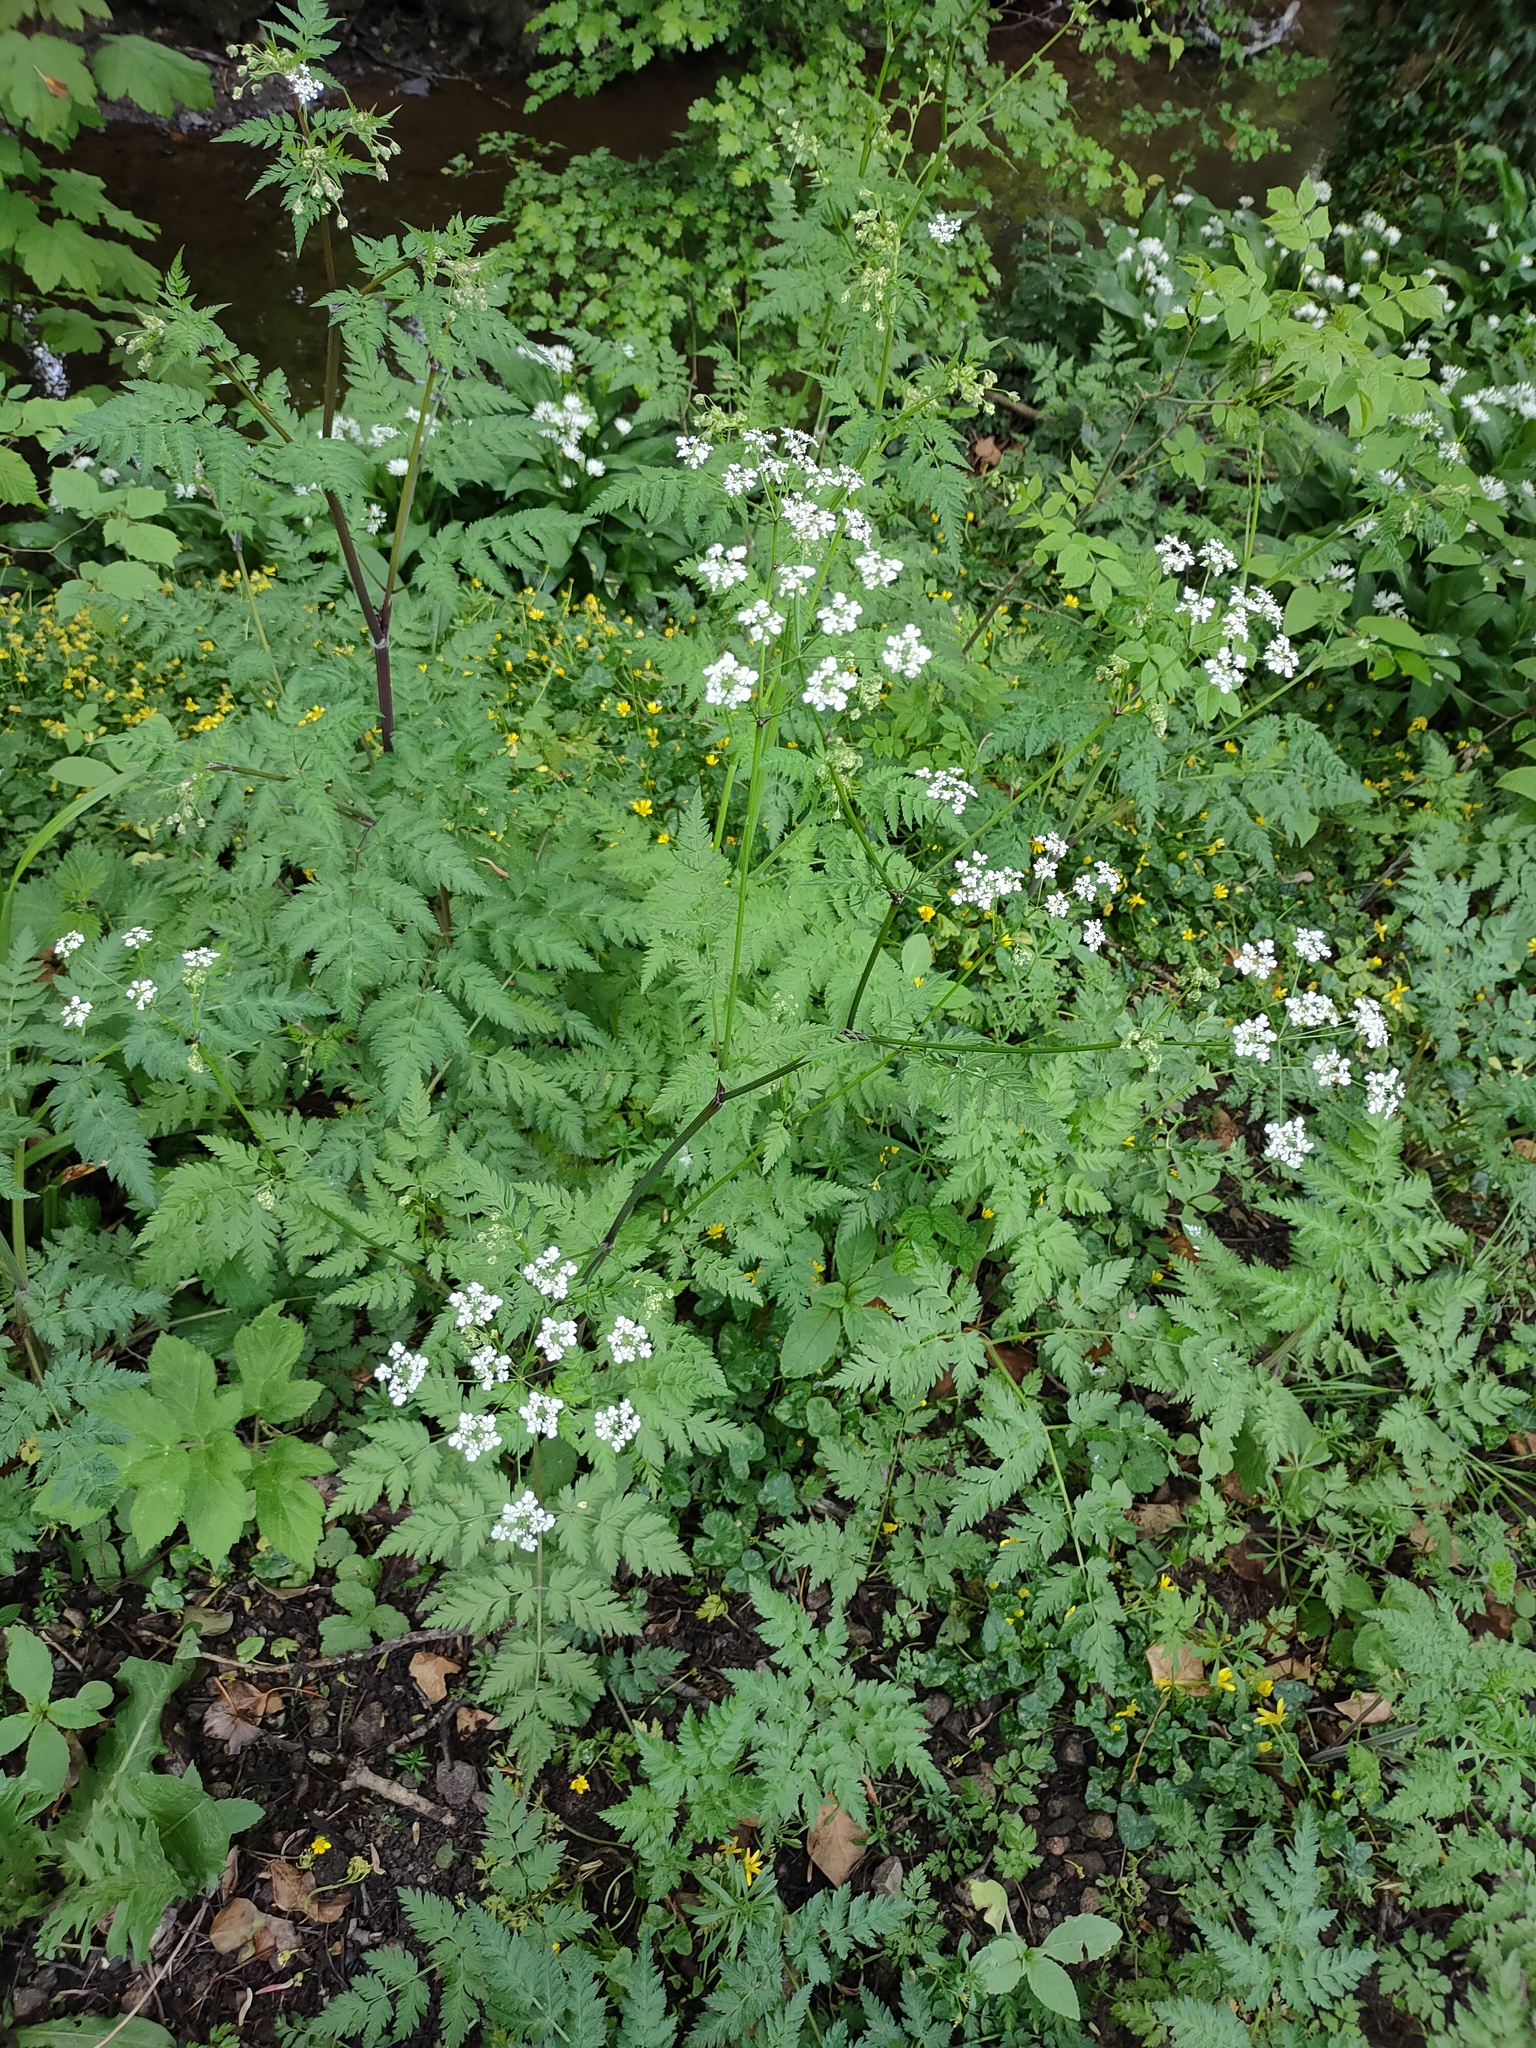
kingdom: Plantae
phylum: Tracheophyta
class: Magnoliopsida
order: Apiales
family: Apiaceae
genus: Anthriscus
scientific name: Anthriscus sylvestris
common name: Cow parsley
